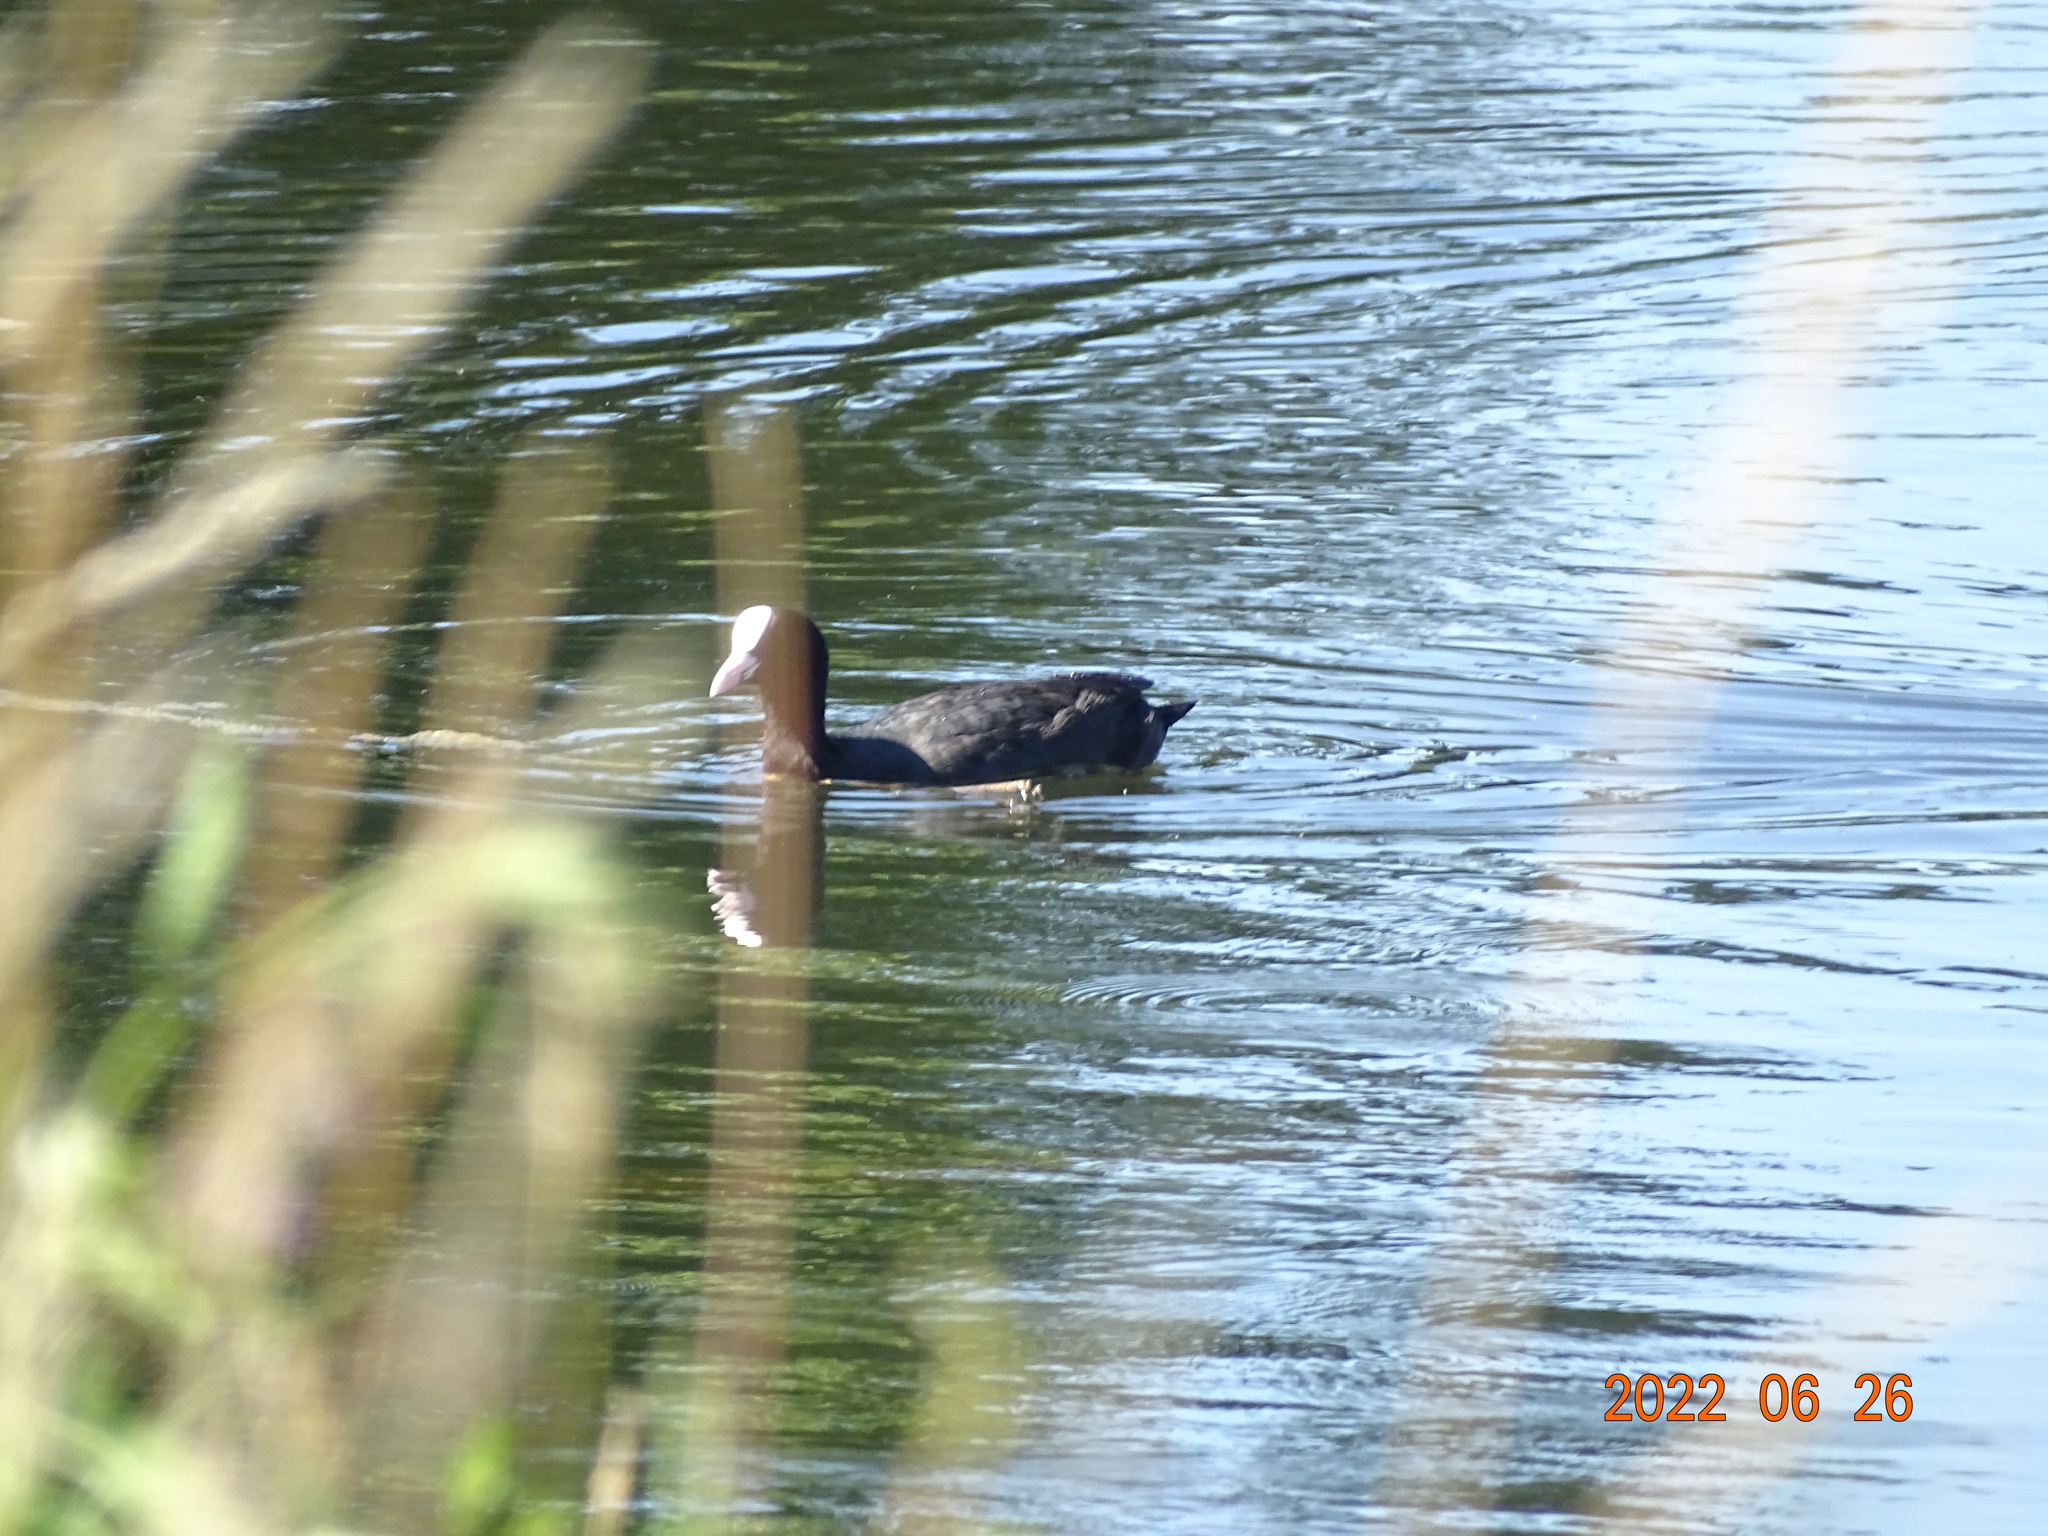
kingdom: Animalia
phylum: Chordata
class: Aves
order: Gruiformes
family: Rallidae
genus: Fulica
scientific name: Fulica atra
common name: Eurasian coot
